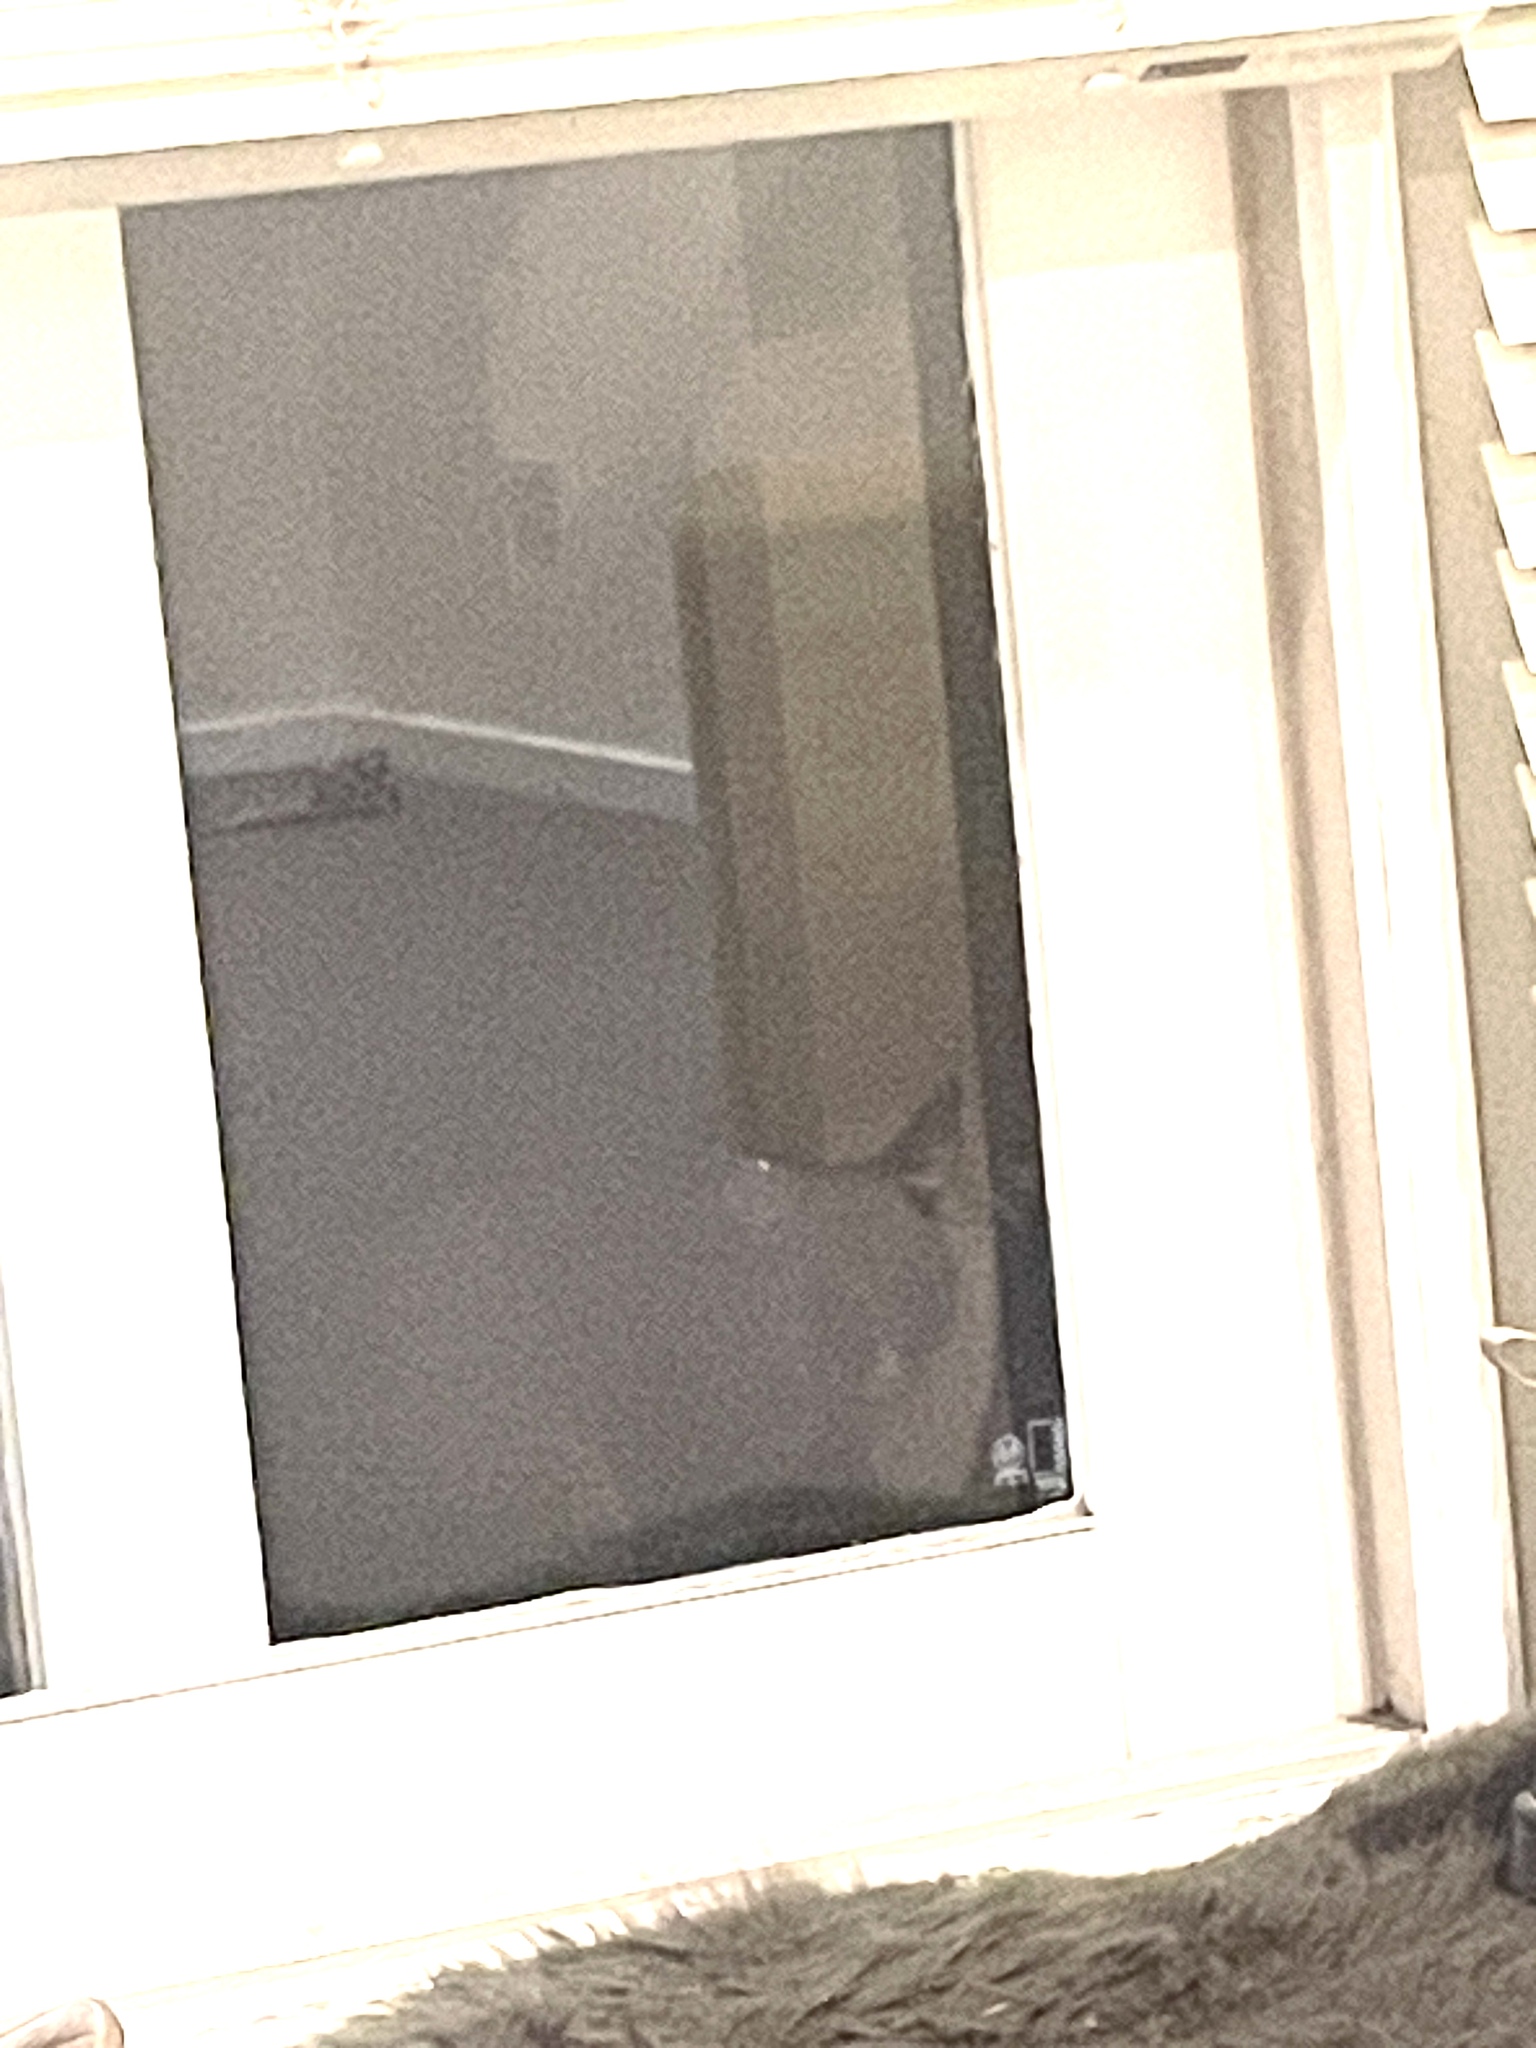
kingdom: Animalia
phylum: Chordata
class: Mammalia
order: Diprotodontia
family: Phalangeridae
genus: Trichosurus
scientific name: Trichosurus vulpecula
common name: Common brushtail
